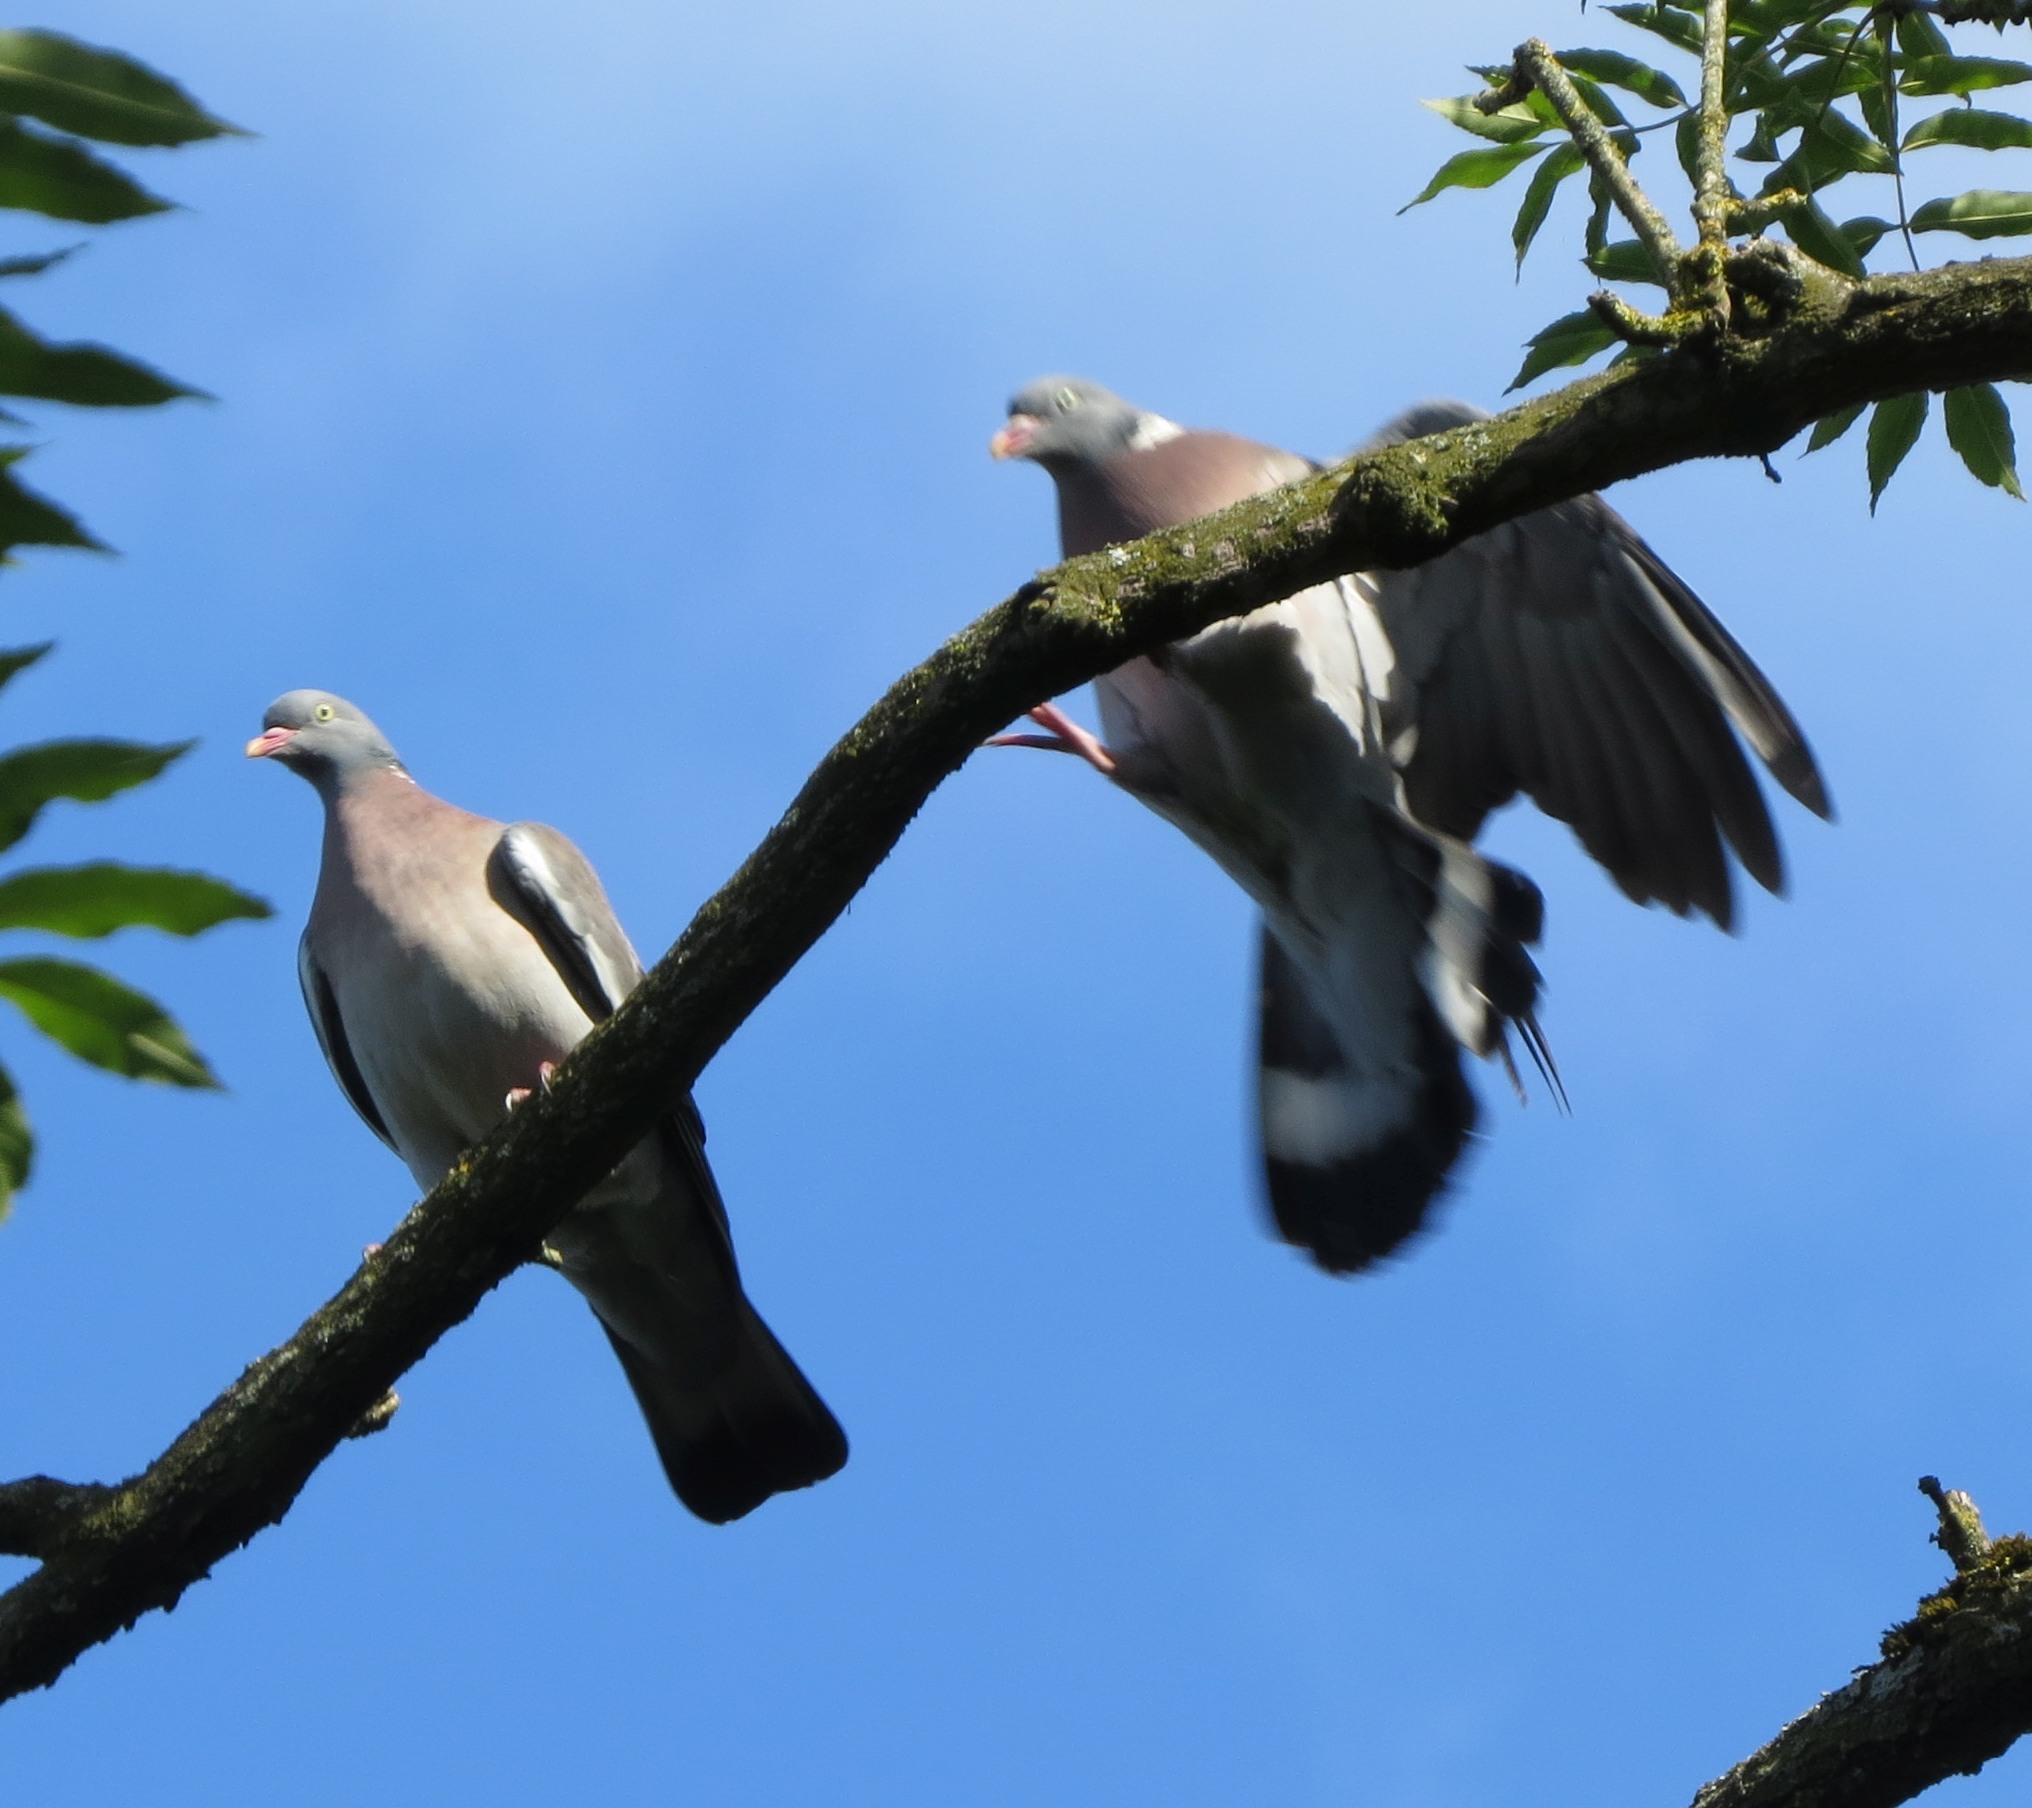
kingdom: Animalia
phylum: Chordata
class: Aves
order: Columbiformes
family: Columbidae
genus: Columba
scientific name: Columba palumbus
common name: Common wood pigeon
